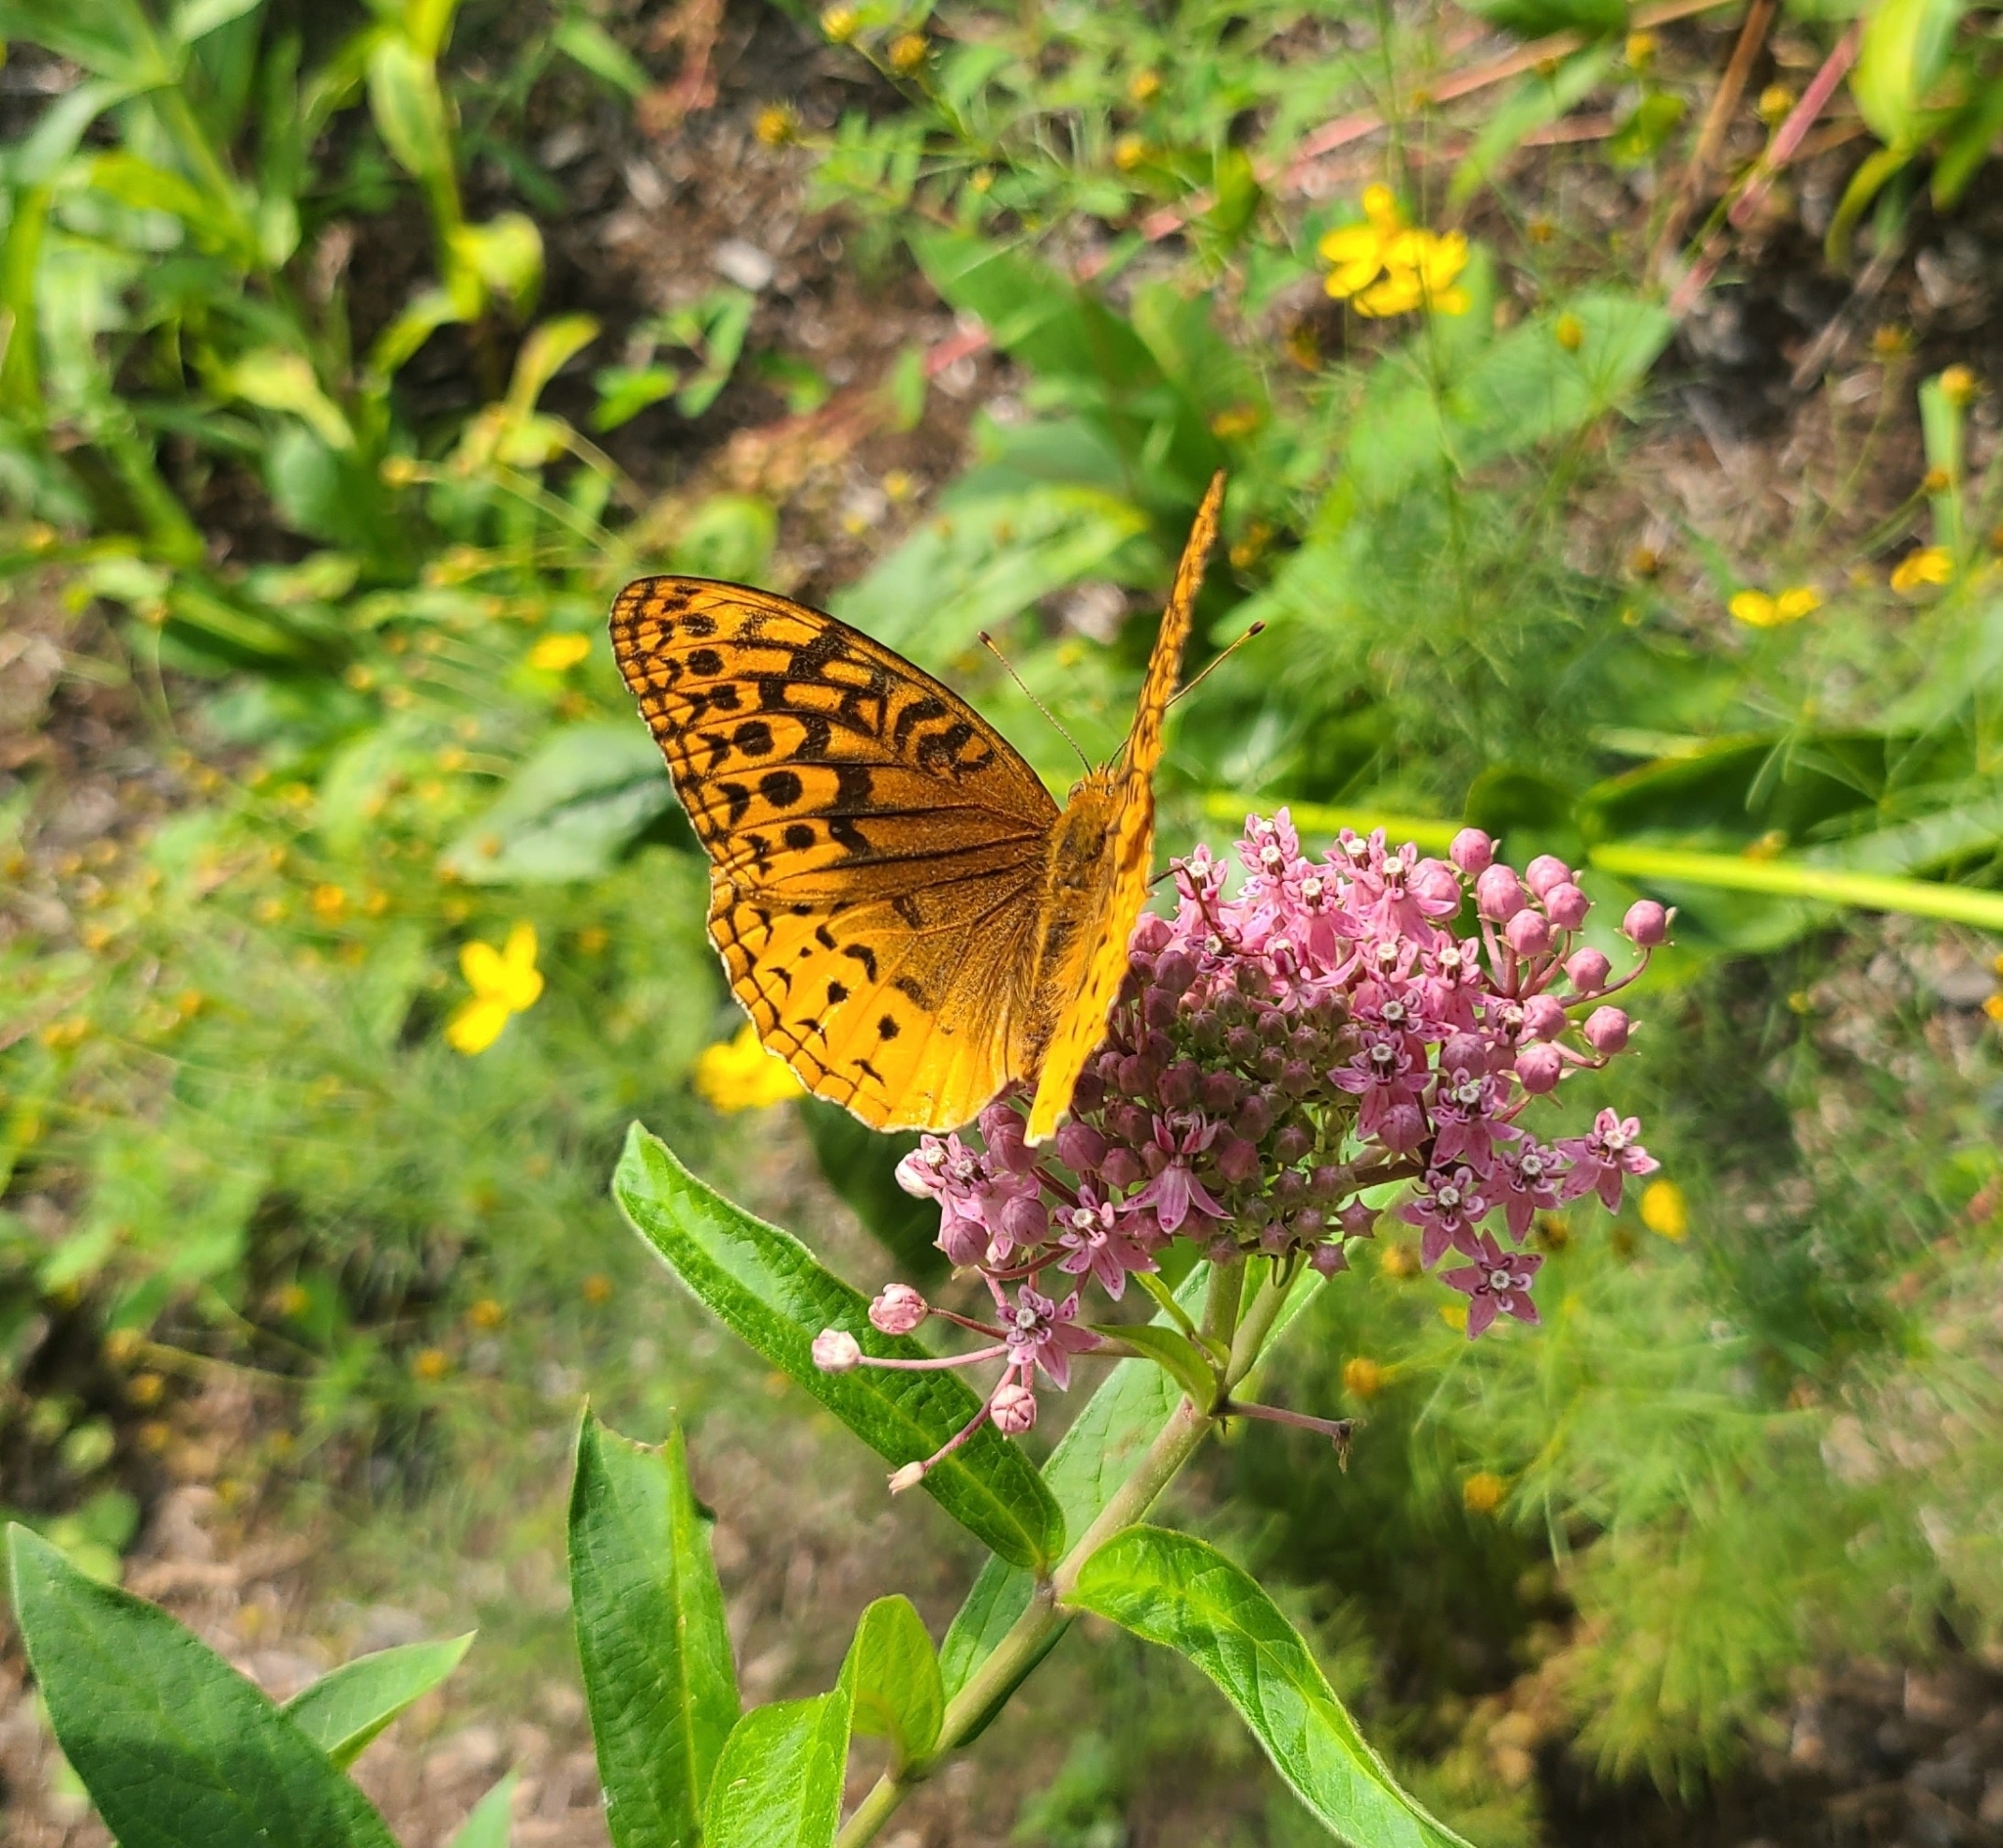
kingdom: Animalia
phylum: Arthropoda
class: Insecta
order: Lepidoptera
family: Nymphalidae
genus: Speyeria
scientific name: Speyeria cybele
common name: Great spangled fritillary
